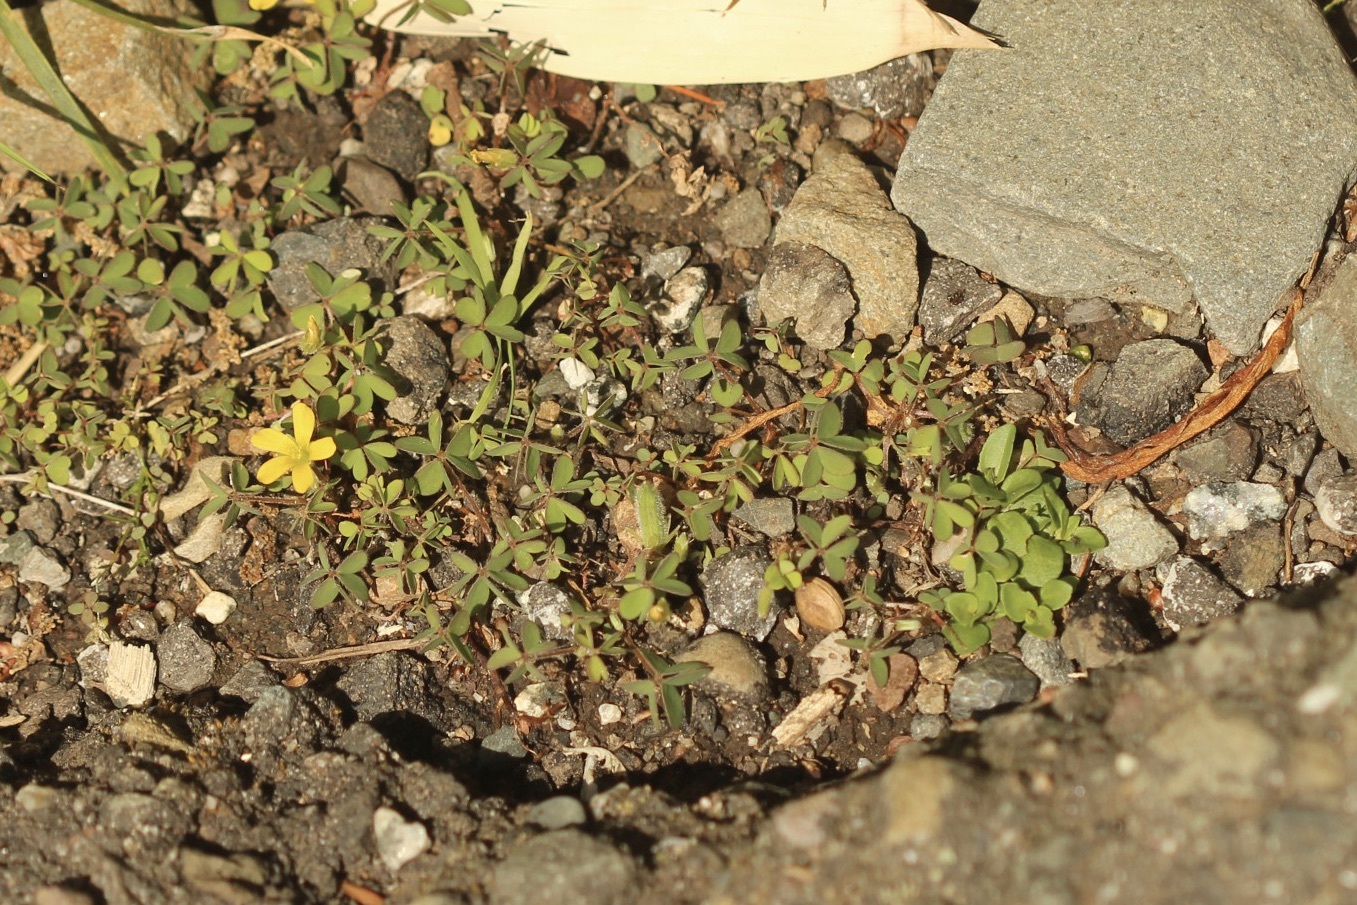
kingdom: Plantae
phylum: Tracheophyta
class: Magnoliopsida
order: Oxalidales
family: Oxalidaceae
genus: Oxalis
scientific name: Oxalis corniculata
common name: Procumbent yellow-sorrel
